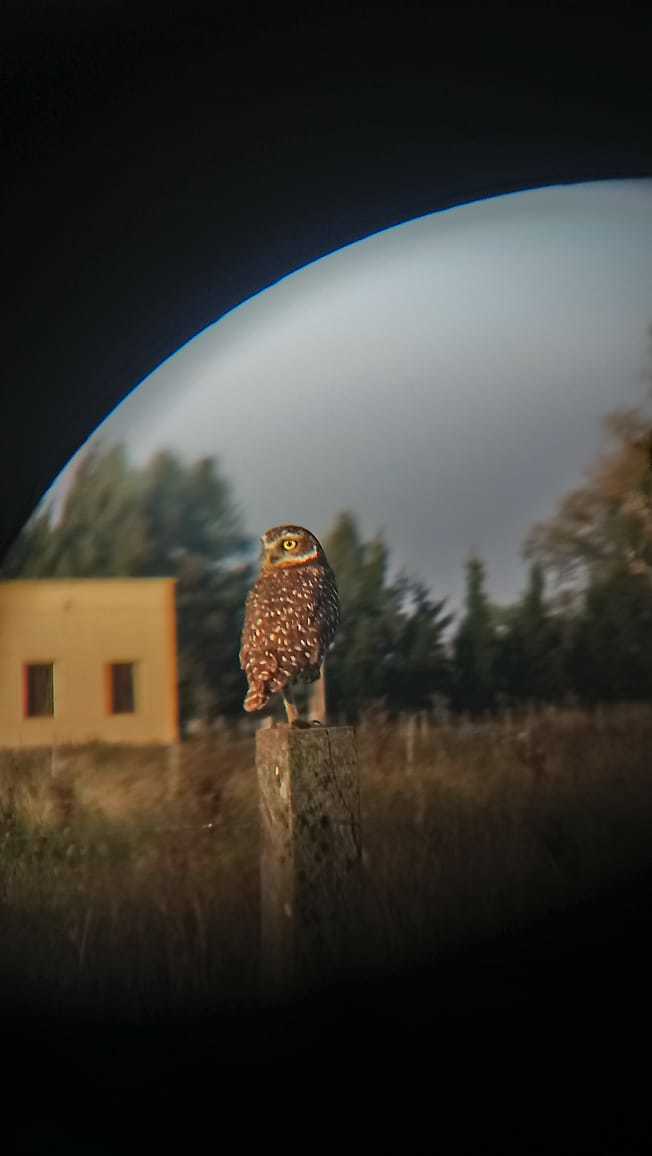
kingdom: Animalia
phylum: Chordata
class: Aves
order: Strigiformes
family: Strigidae
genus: Athene
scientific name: Athene cunicularia
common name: Burrowing owl
